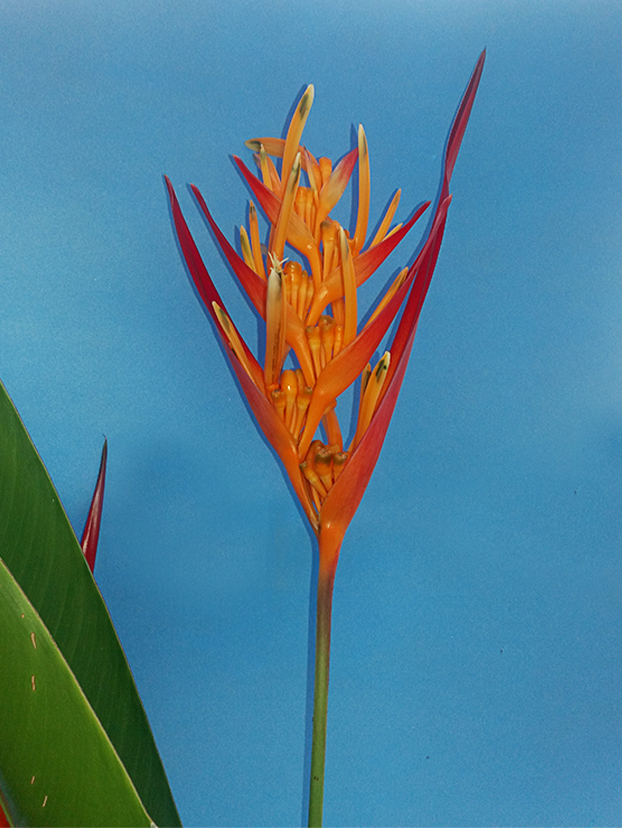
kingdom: Plantae
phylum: Tracheophyta
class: Liliopsida
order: Zingiberales
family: Heliconiaceae
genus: Heliconia
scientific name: Heliconia psittacorum
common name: Parrot's-flower
